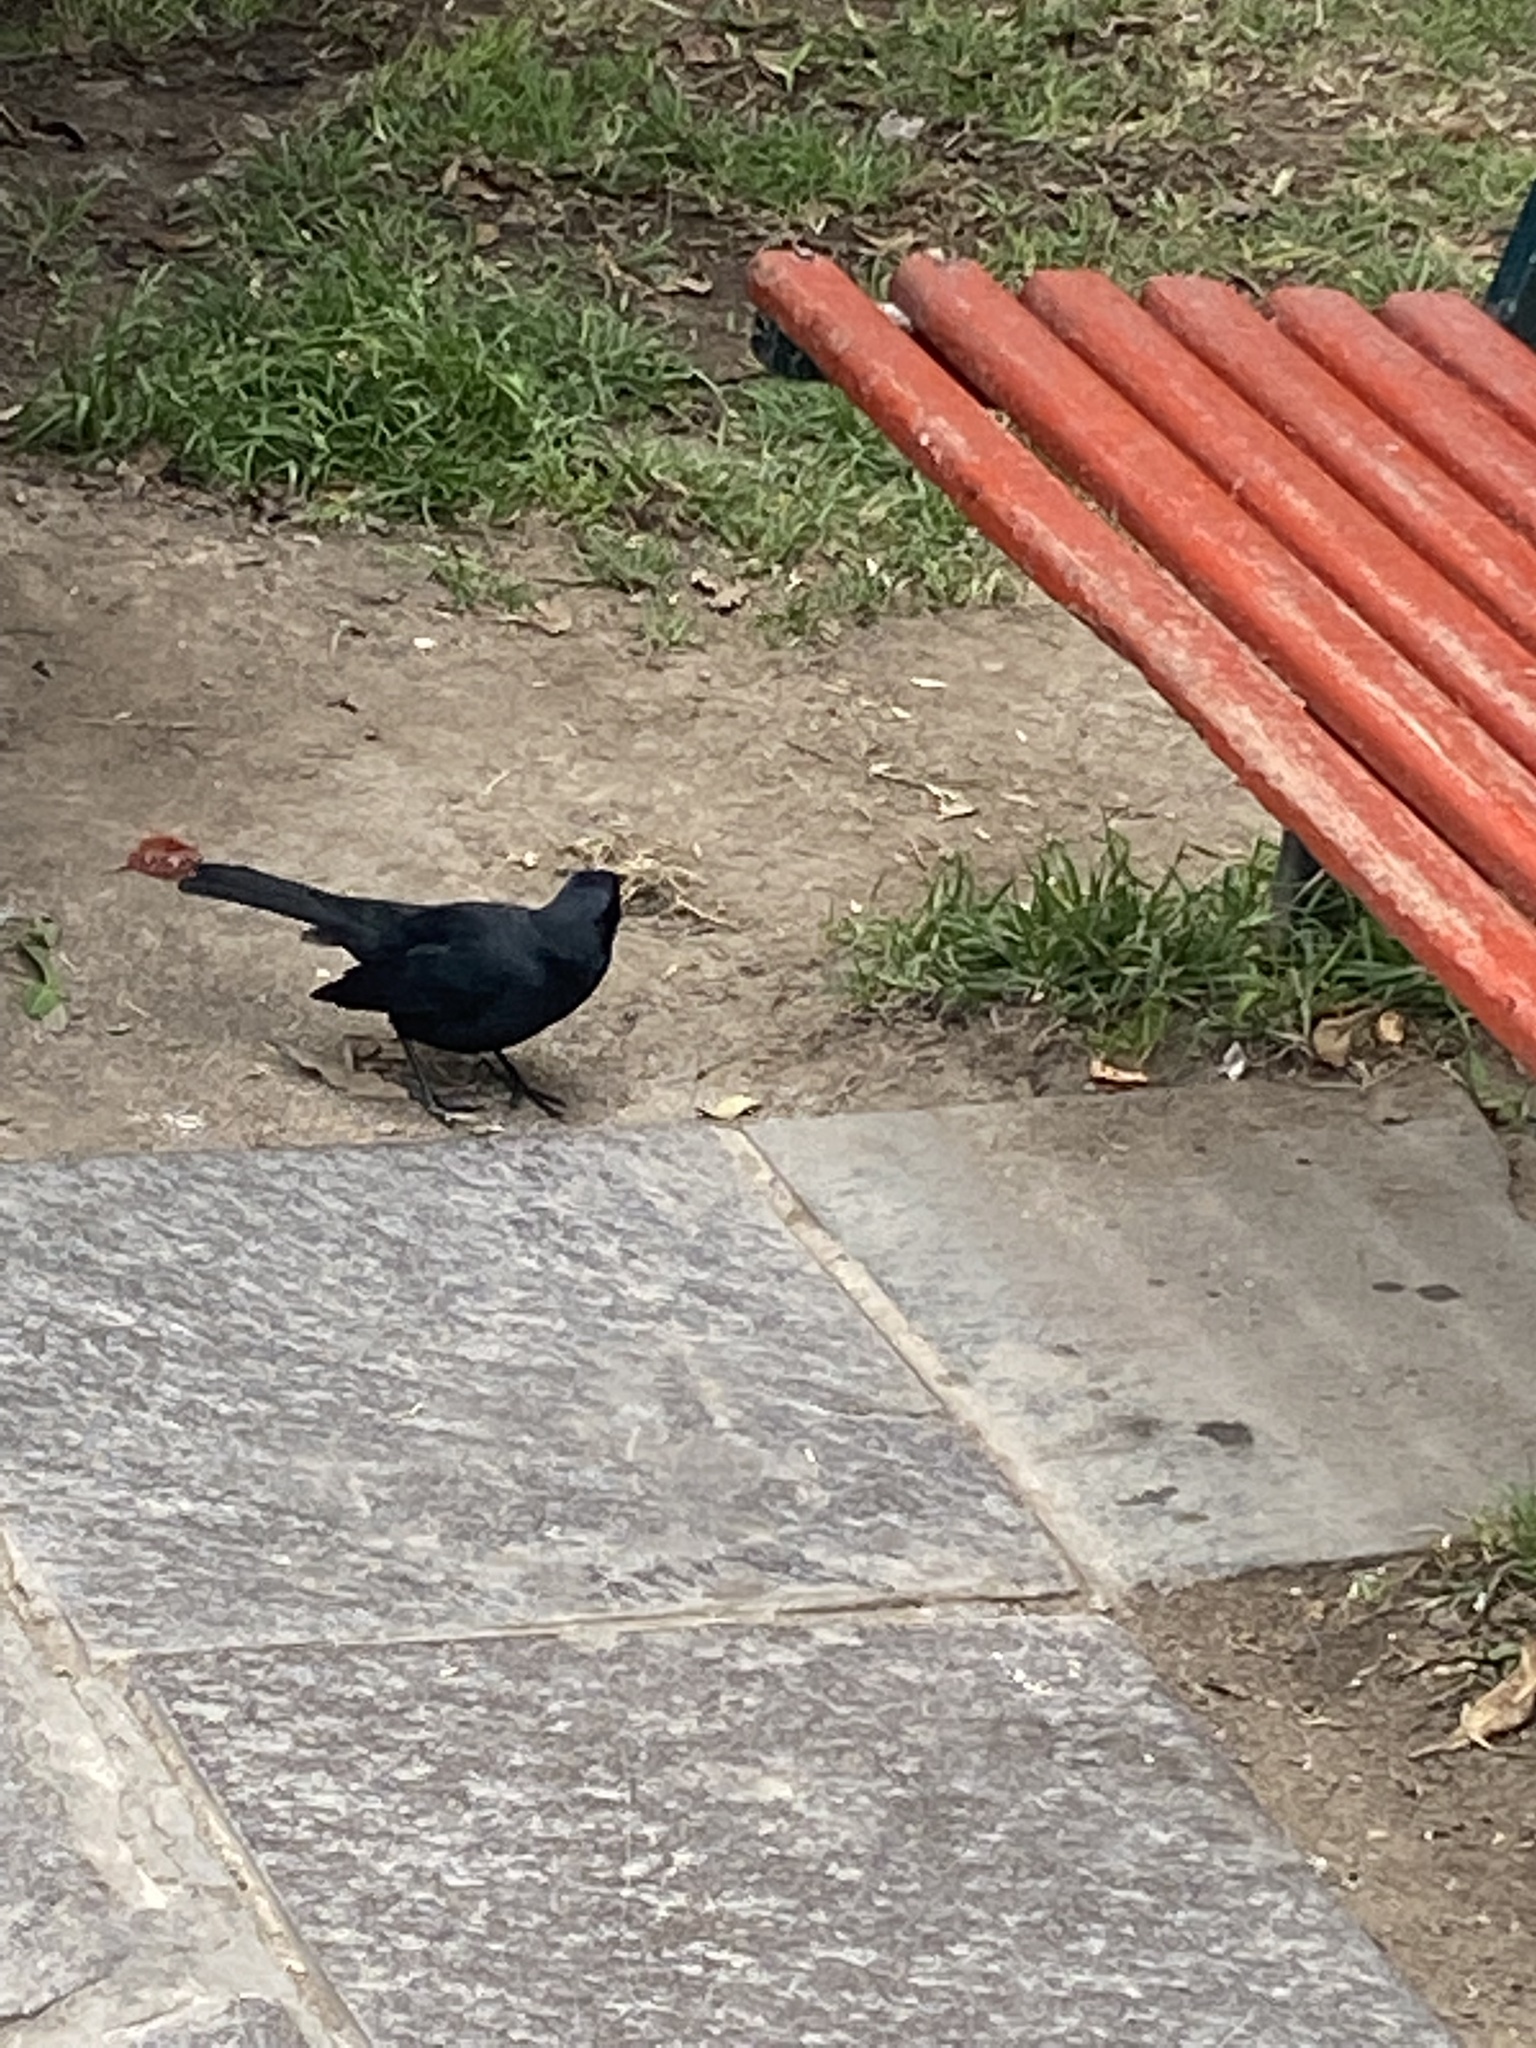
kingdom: Animalia
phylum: Chordata
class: Aves
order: Passeriformes
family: Icteridae
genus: Dives
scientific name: Dives warczewiczi
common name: Scrub blackbird
